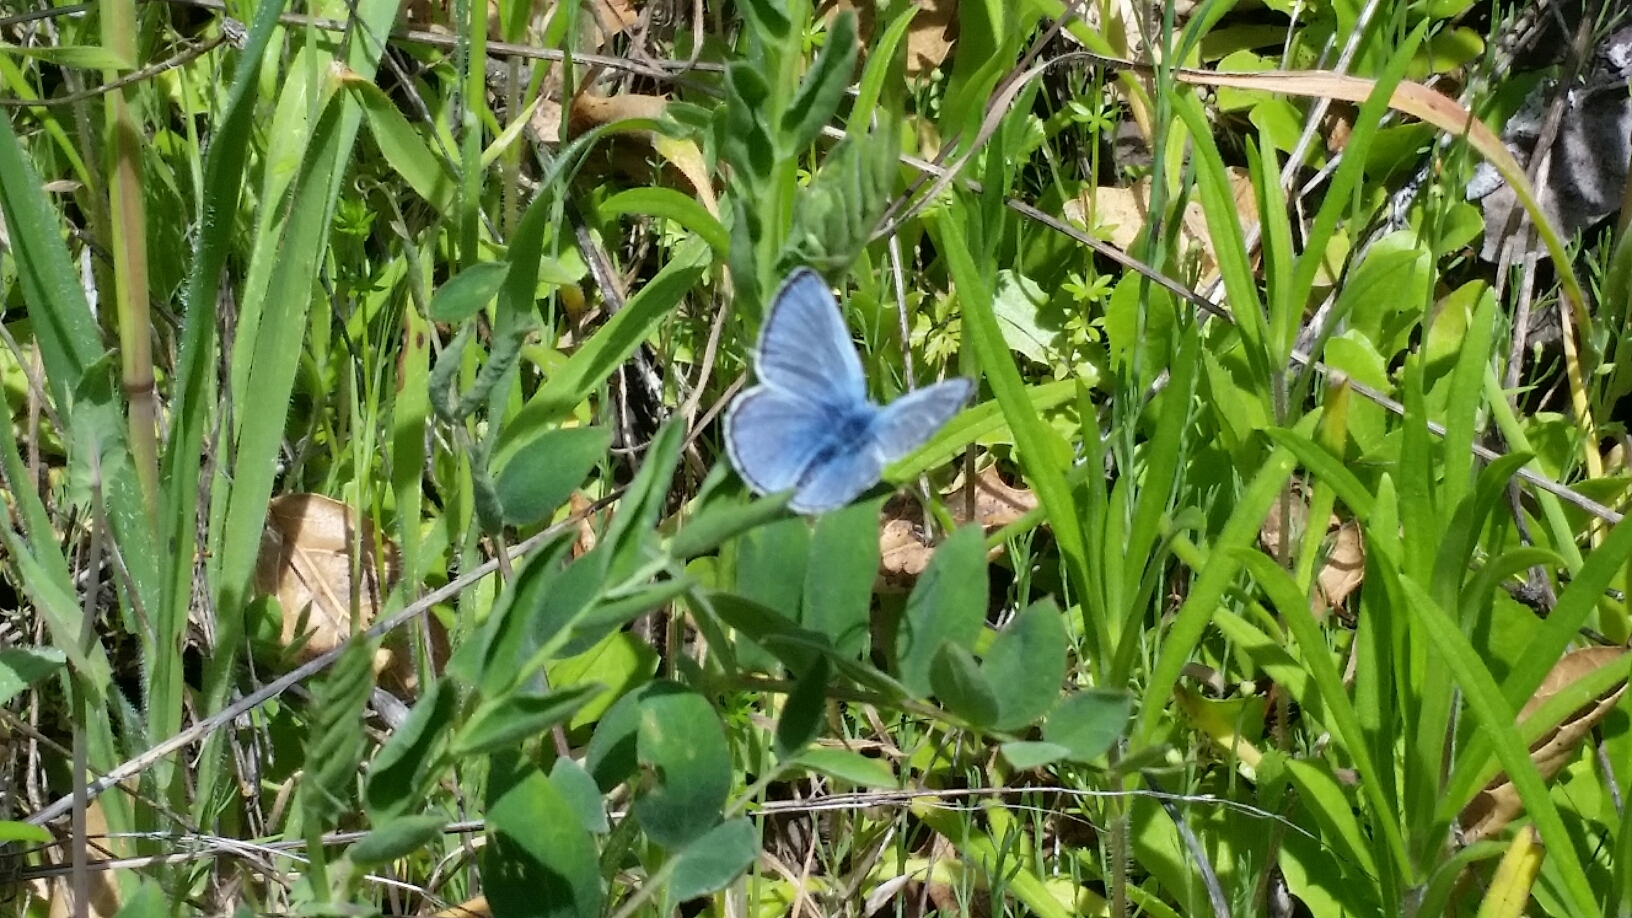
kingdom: Animalia
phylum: Arthropoda
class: Insecta
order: Lepidoptera
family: Lycaenidae
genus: Glaucopsyche
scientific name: Glaucopsyche lygdamus
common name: Silvery blue
